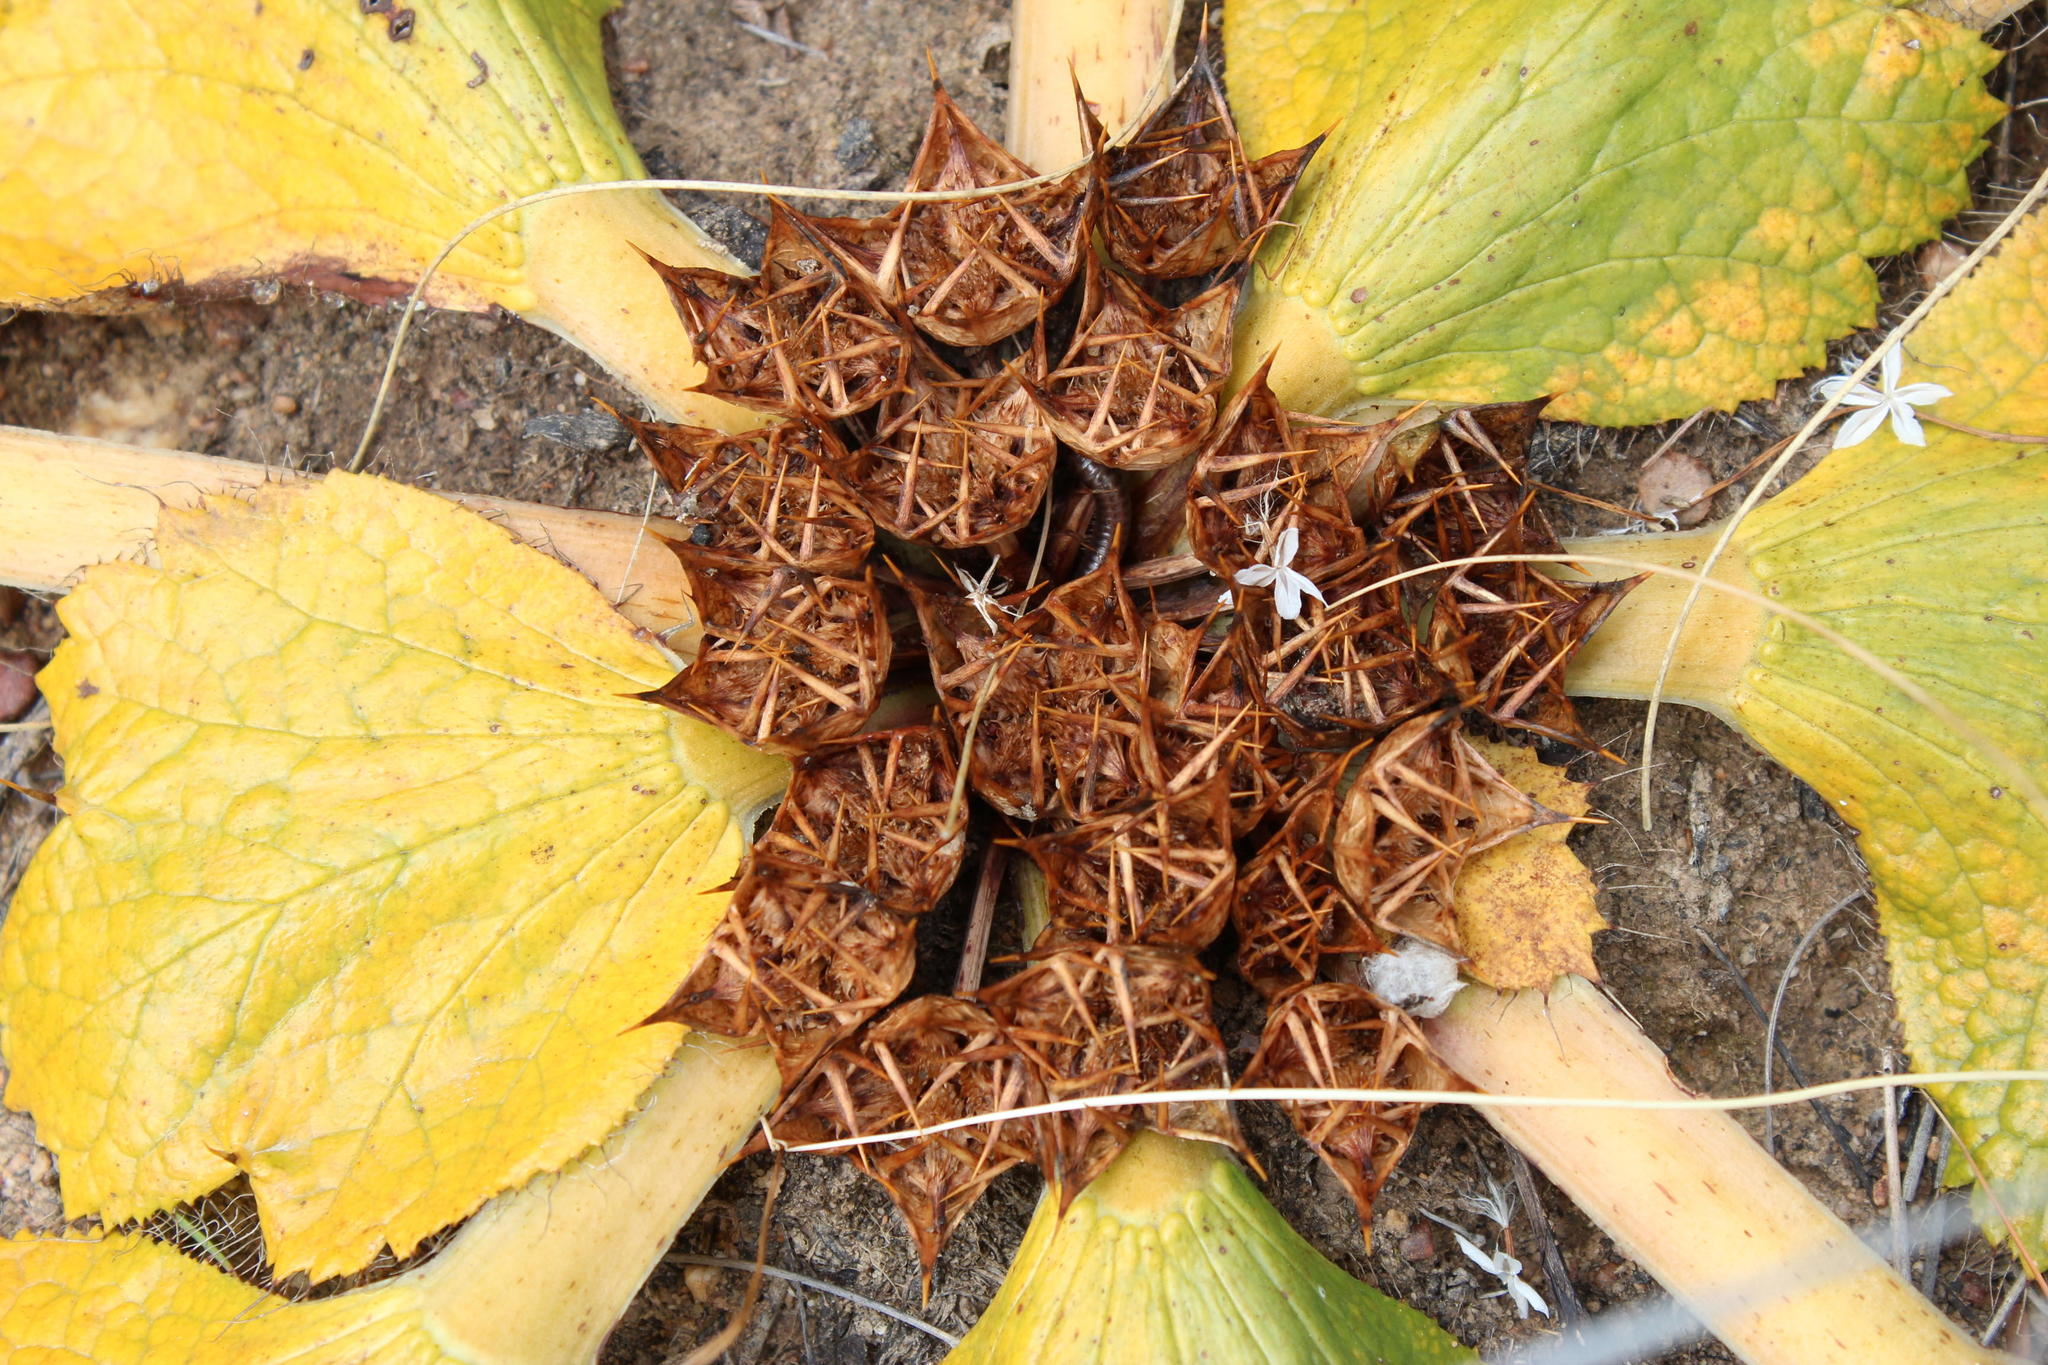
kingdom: Plantae
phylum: Tracheophyta
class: Magnoliopsida
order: Apiales
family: Apiaceae
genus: Arctopus
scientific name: Arctopus echinatus
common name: Platdoring
